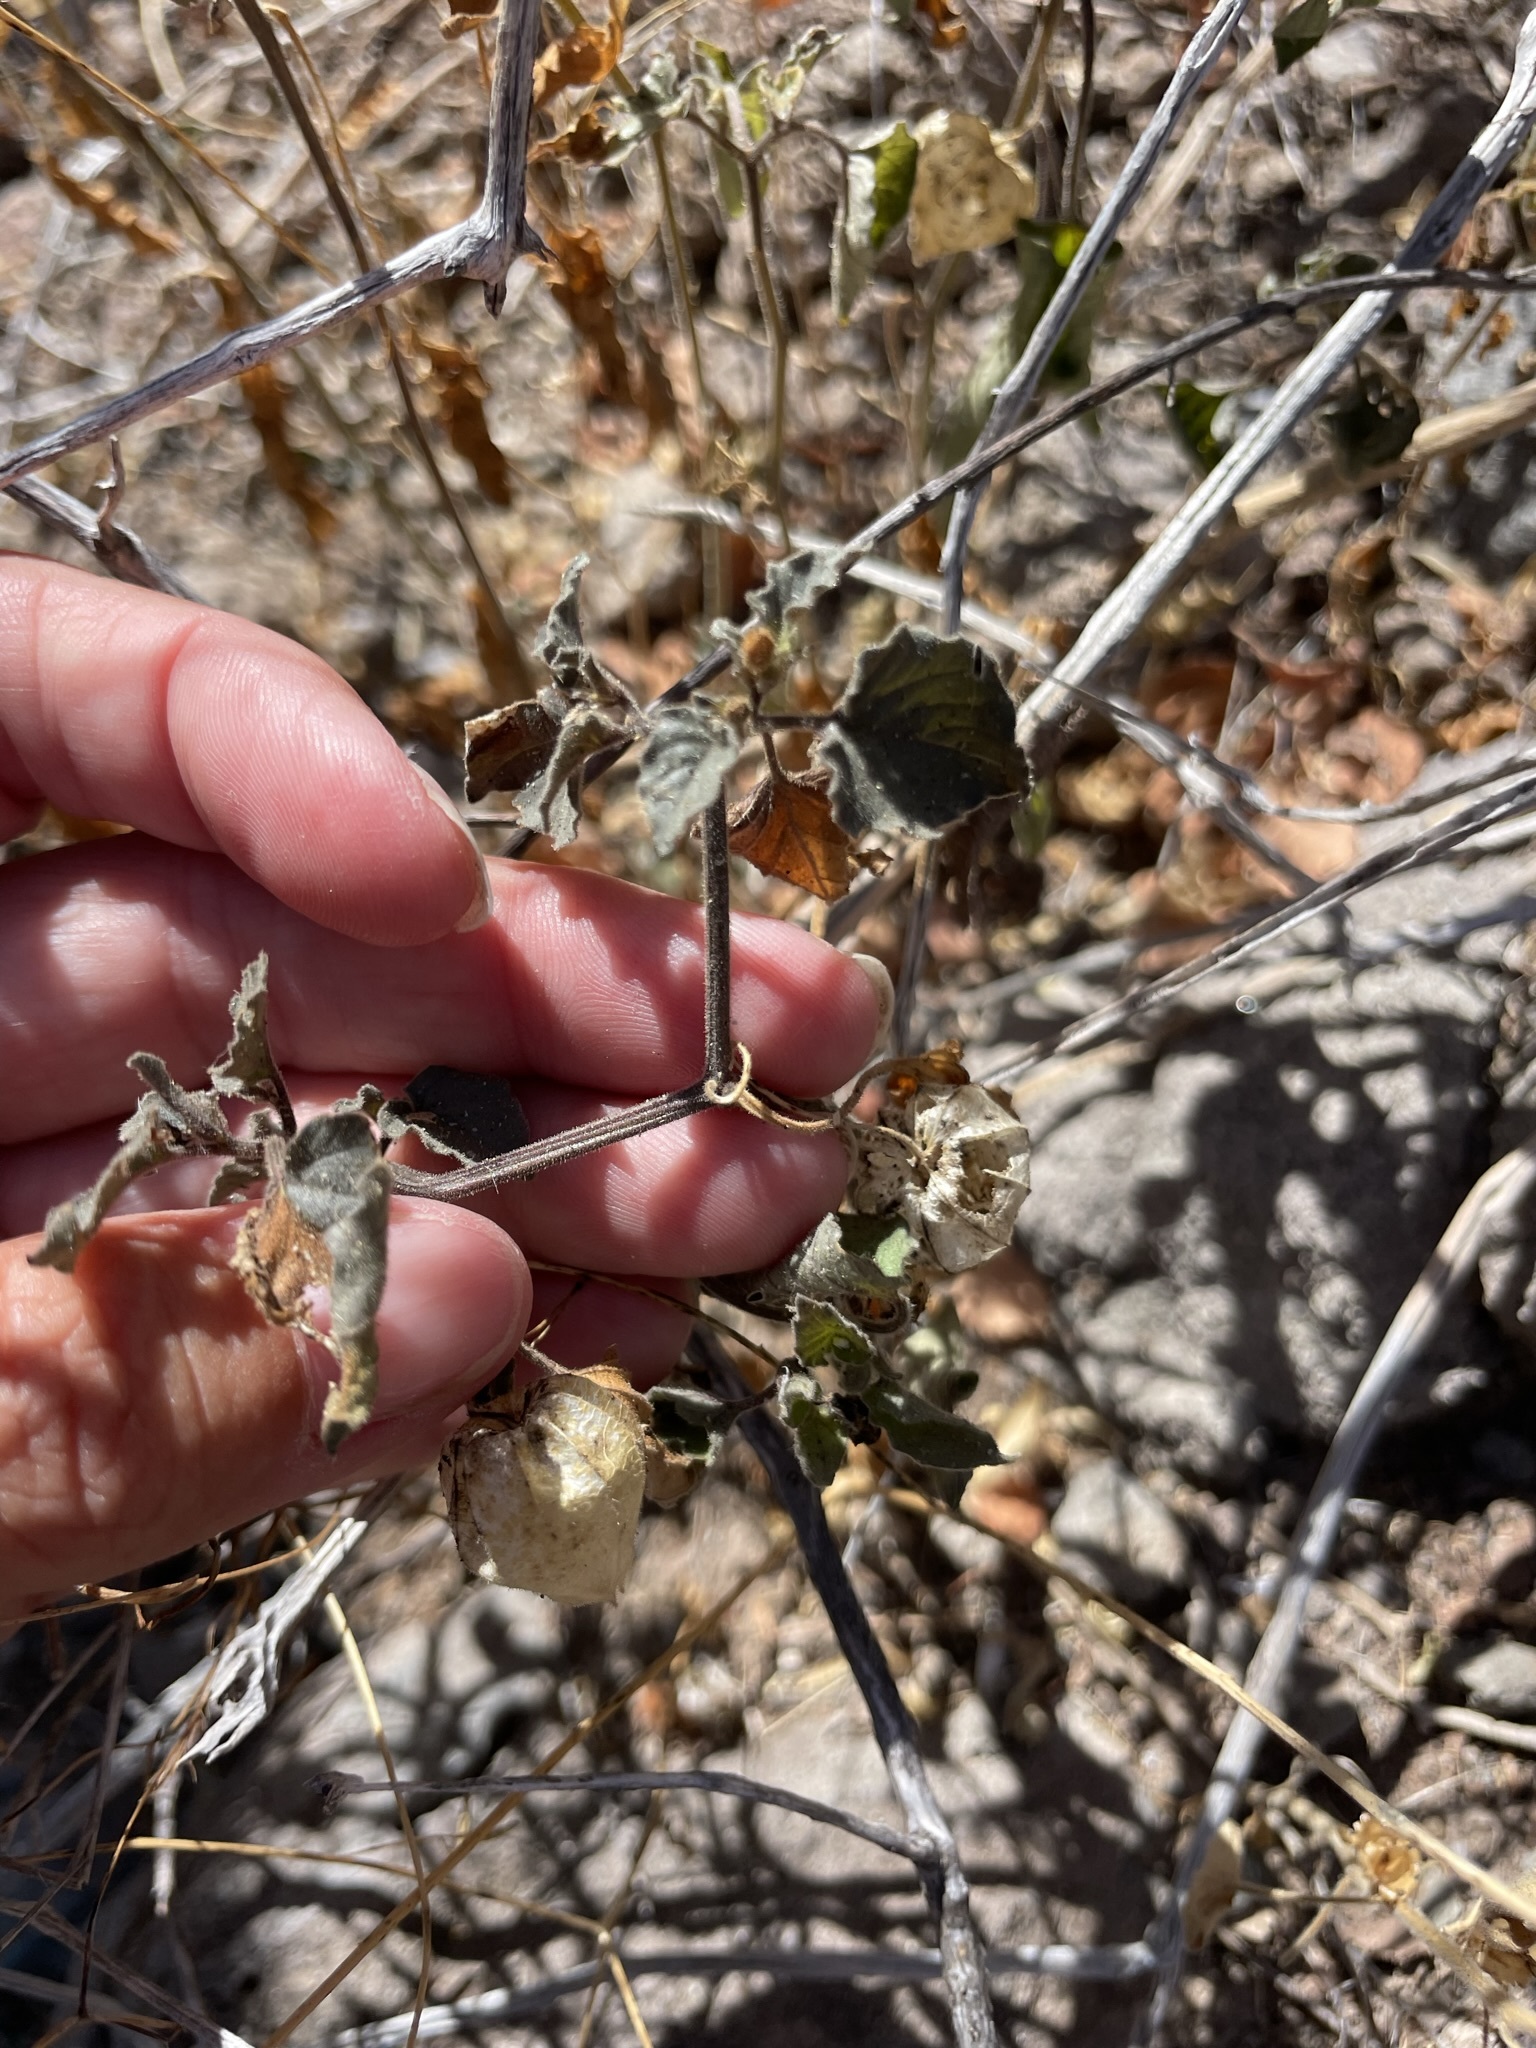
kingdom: Plantae
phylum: Tracheophyta
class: Magnoliopsida
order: Solanales
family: Solanaceae
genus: Physalis
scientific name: Physalis crassifolia
